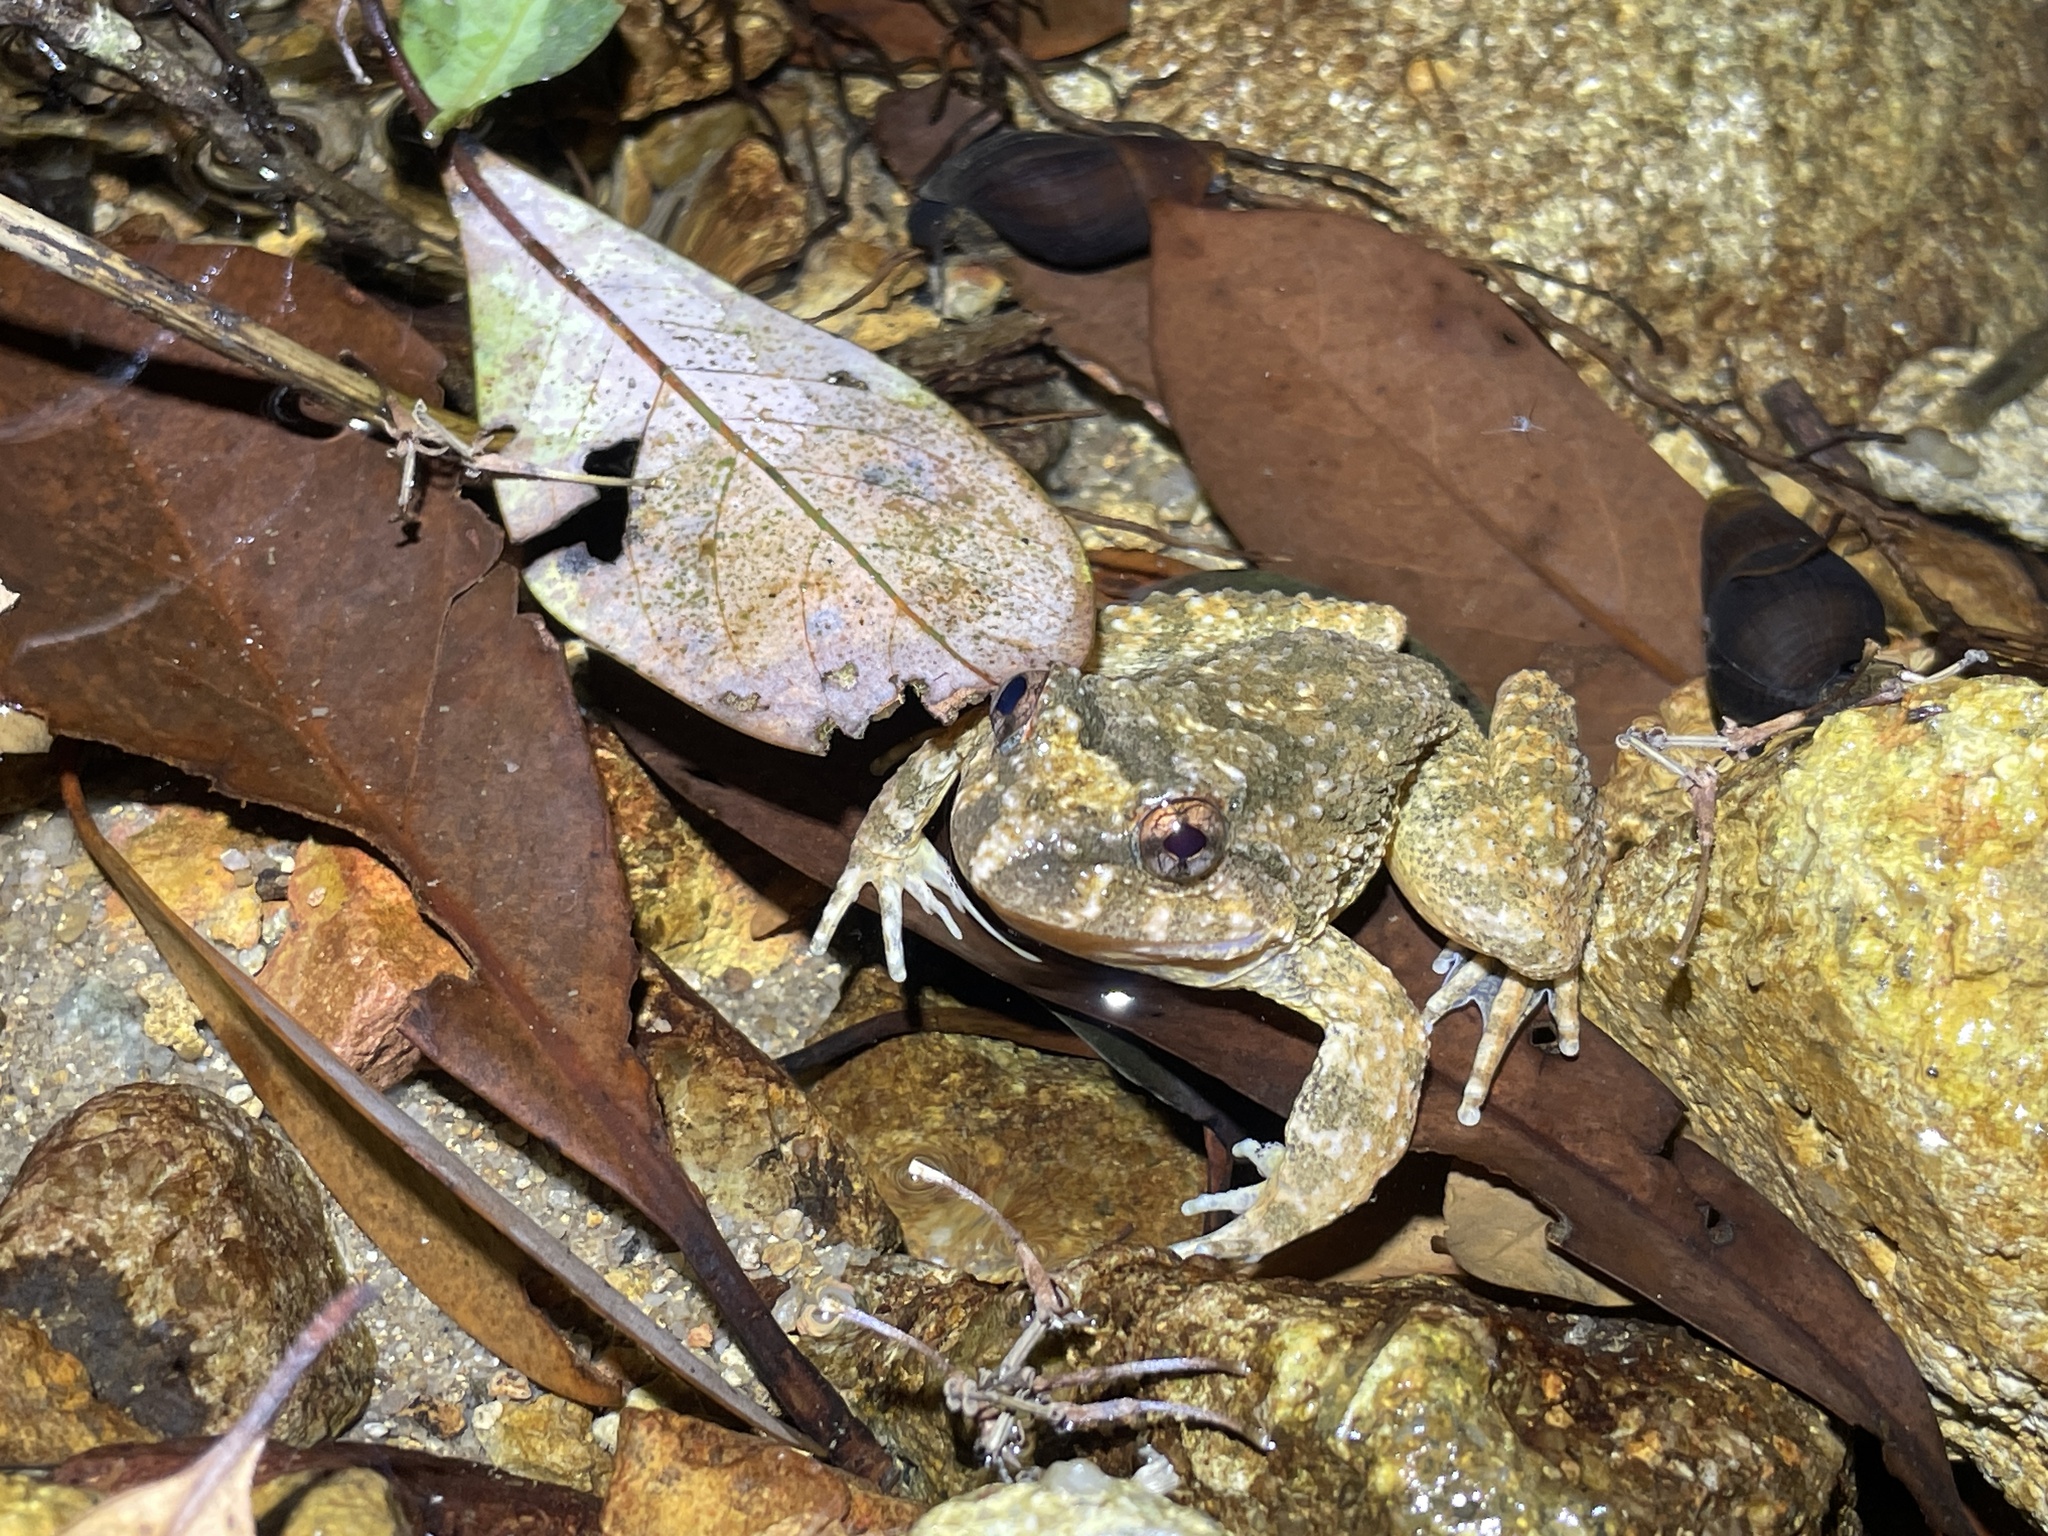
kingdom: Animalia
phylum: Chordata
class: Amphibia
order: Anura
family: Dicroglossidae
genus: Quasipaa
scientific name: Quasipaa exilispinosa
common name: Hong kong paa frog
